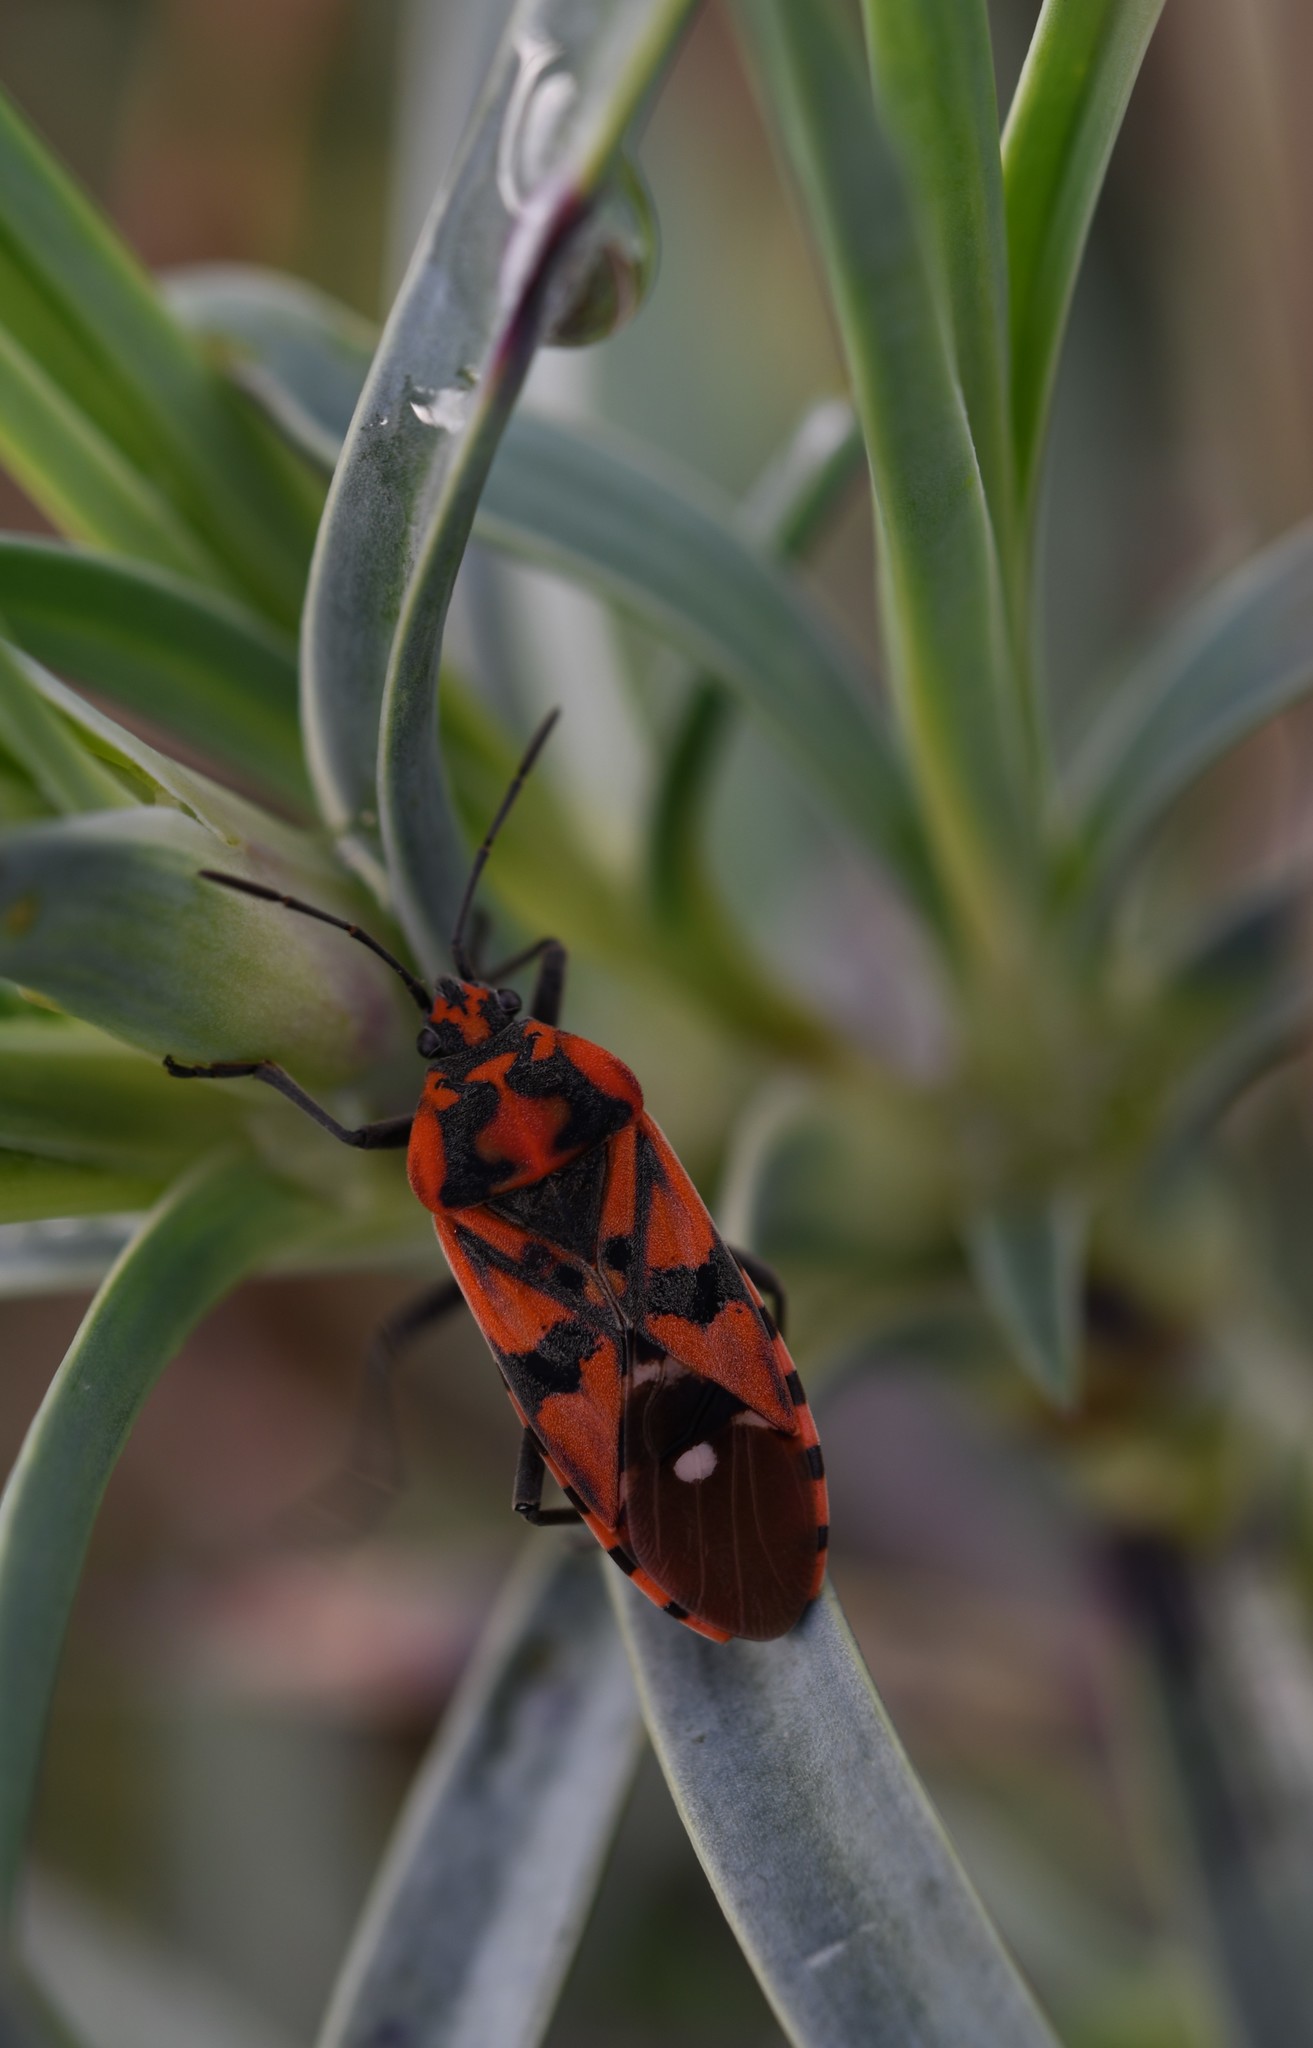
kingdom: Animalia
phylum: Arthropoda
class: Insecta
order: Hemiptera
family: Lygaeidae
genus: Spilostethus
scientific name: Spilostethus pandurus
